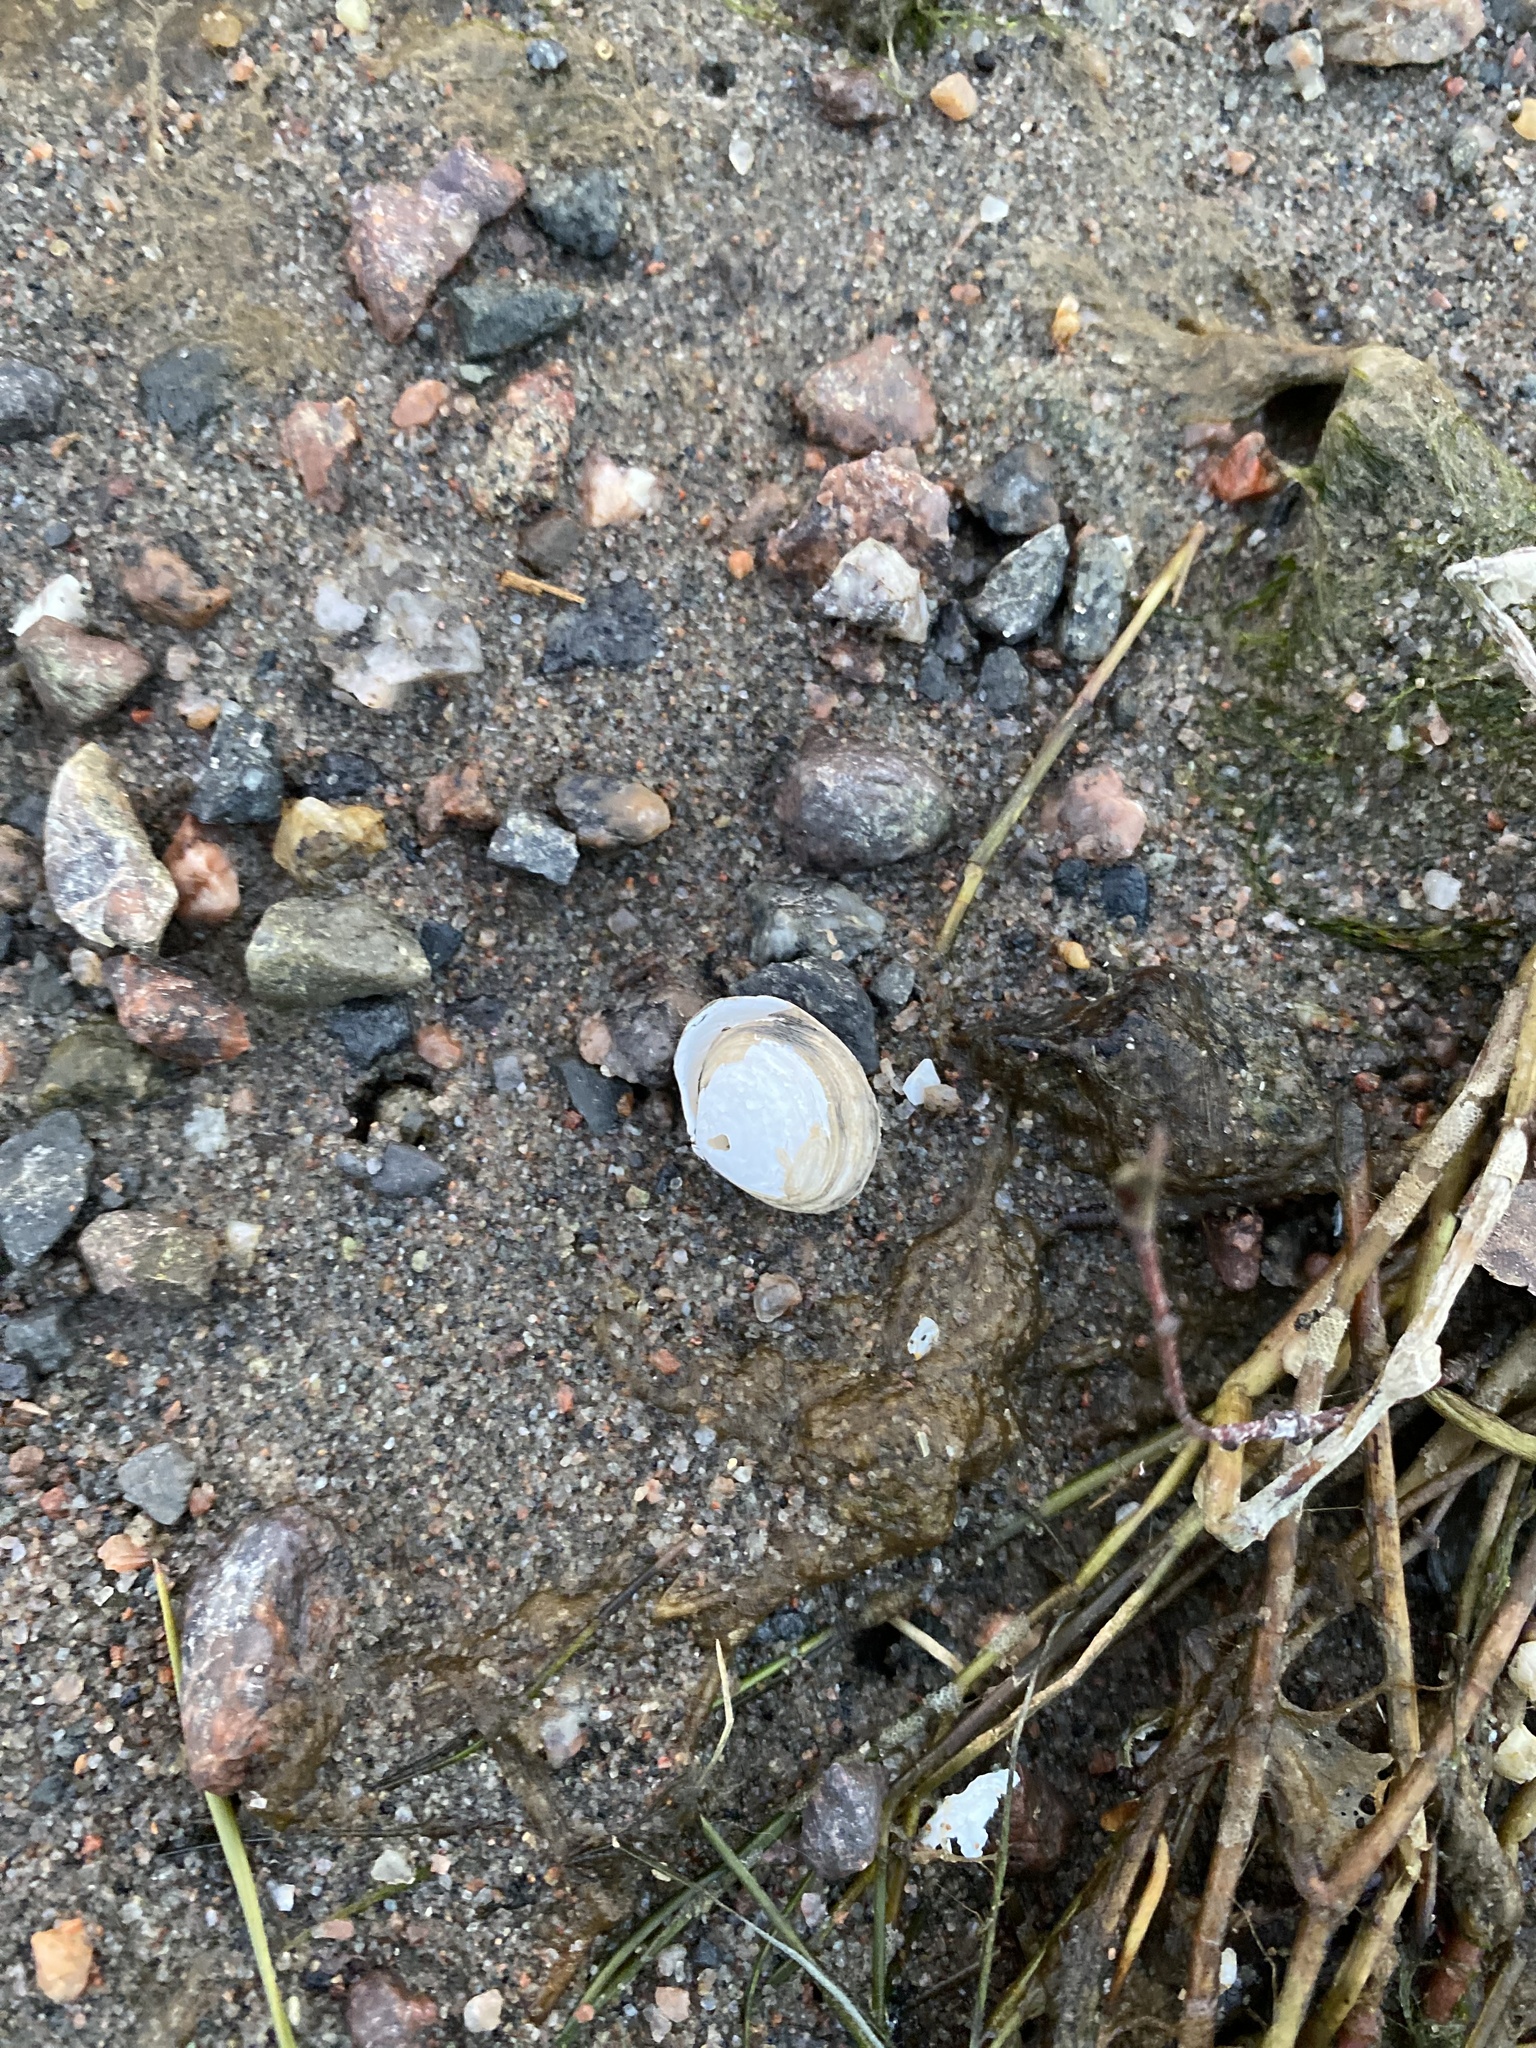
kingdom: Animalia
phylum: Mollusca
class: Bivalvia
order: Cardiida
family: Tellinidae
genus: Macoma
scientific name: Macoma balthica
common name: Baltic tellin
